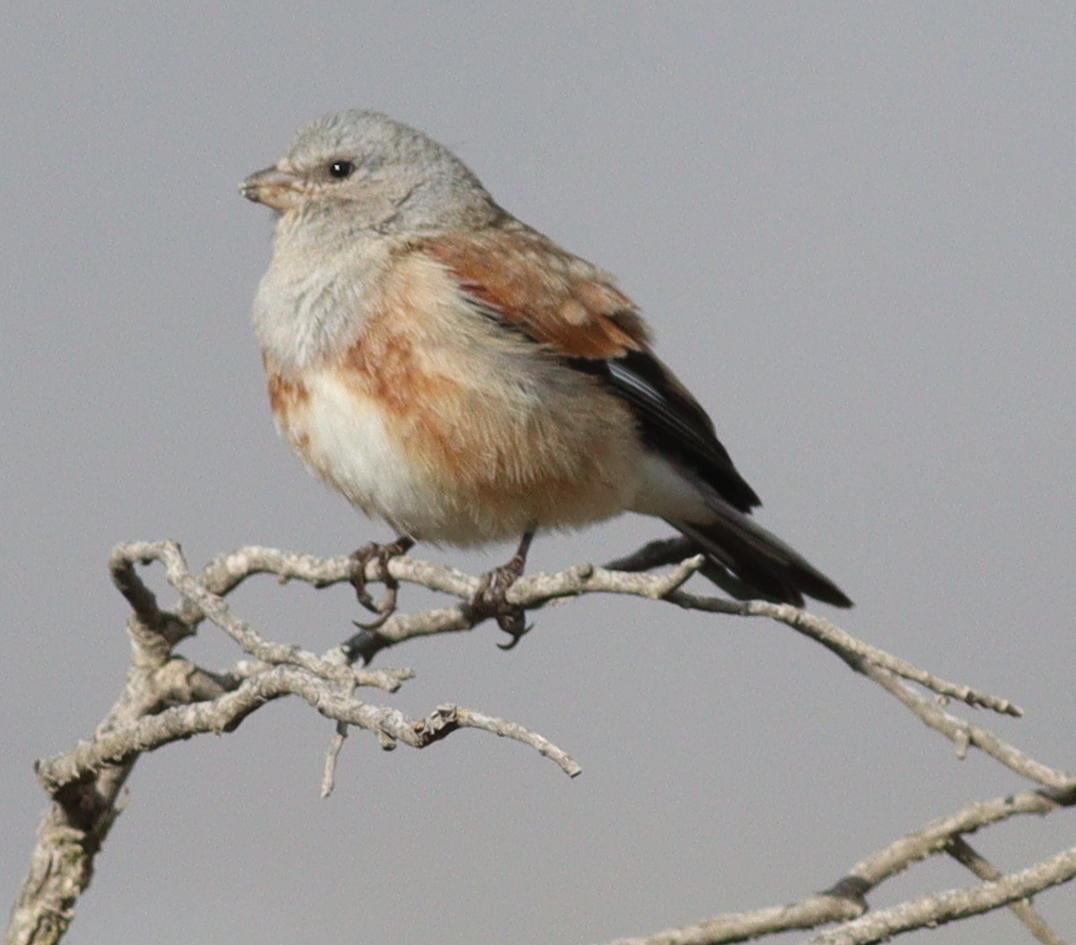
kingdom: Animalia
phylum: Chordata
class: Aves
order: Passeriformes
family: Fringillidae
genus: Linaria
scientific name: Linaria yemenensis
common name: Yemen linnet
